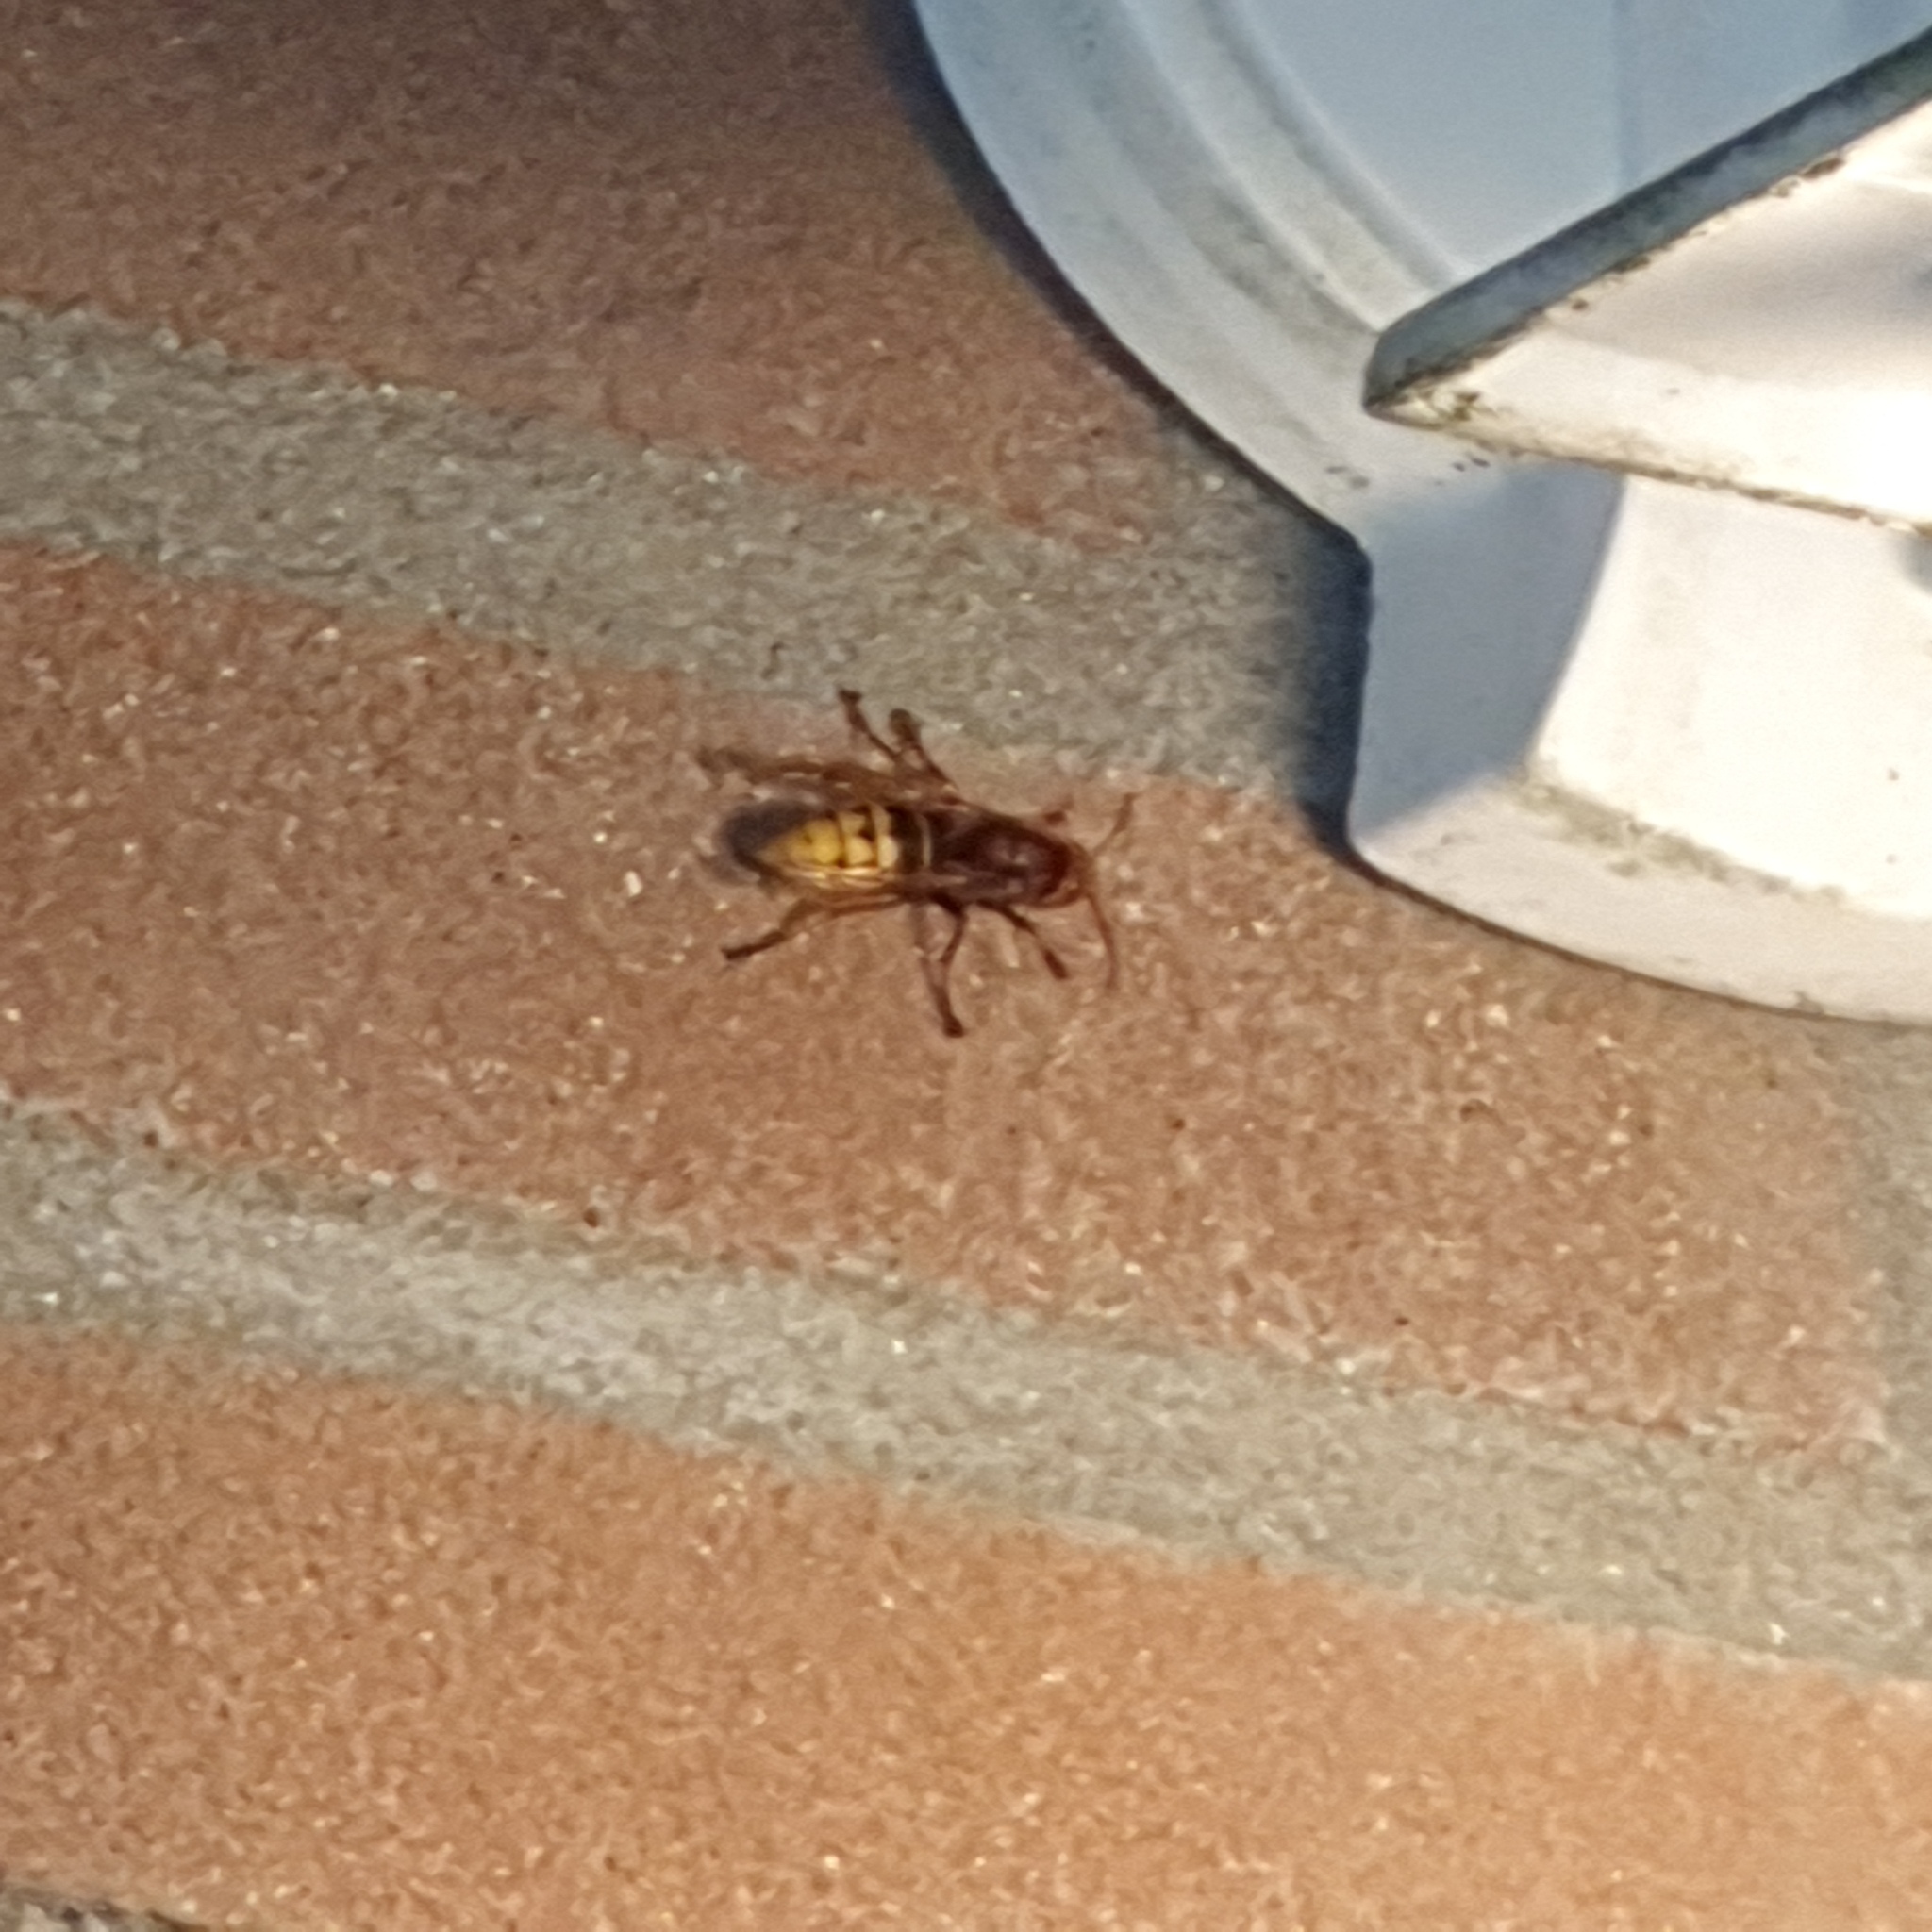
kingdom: Animalia
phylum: Arthropoda
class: Insecta
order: Hymenoptera
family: Vespidae
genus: Vespa
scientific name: Vespa crabro
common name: Hornet
